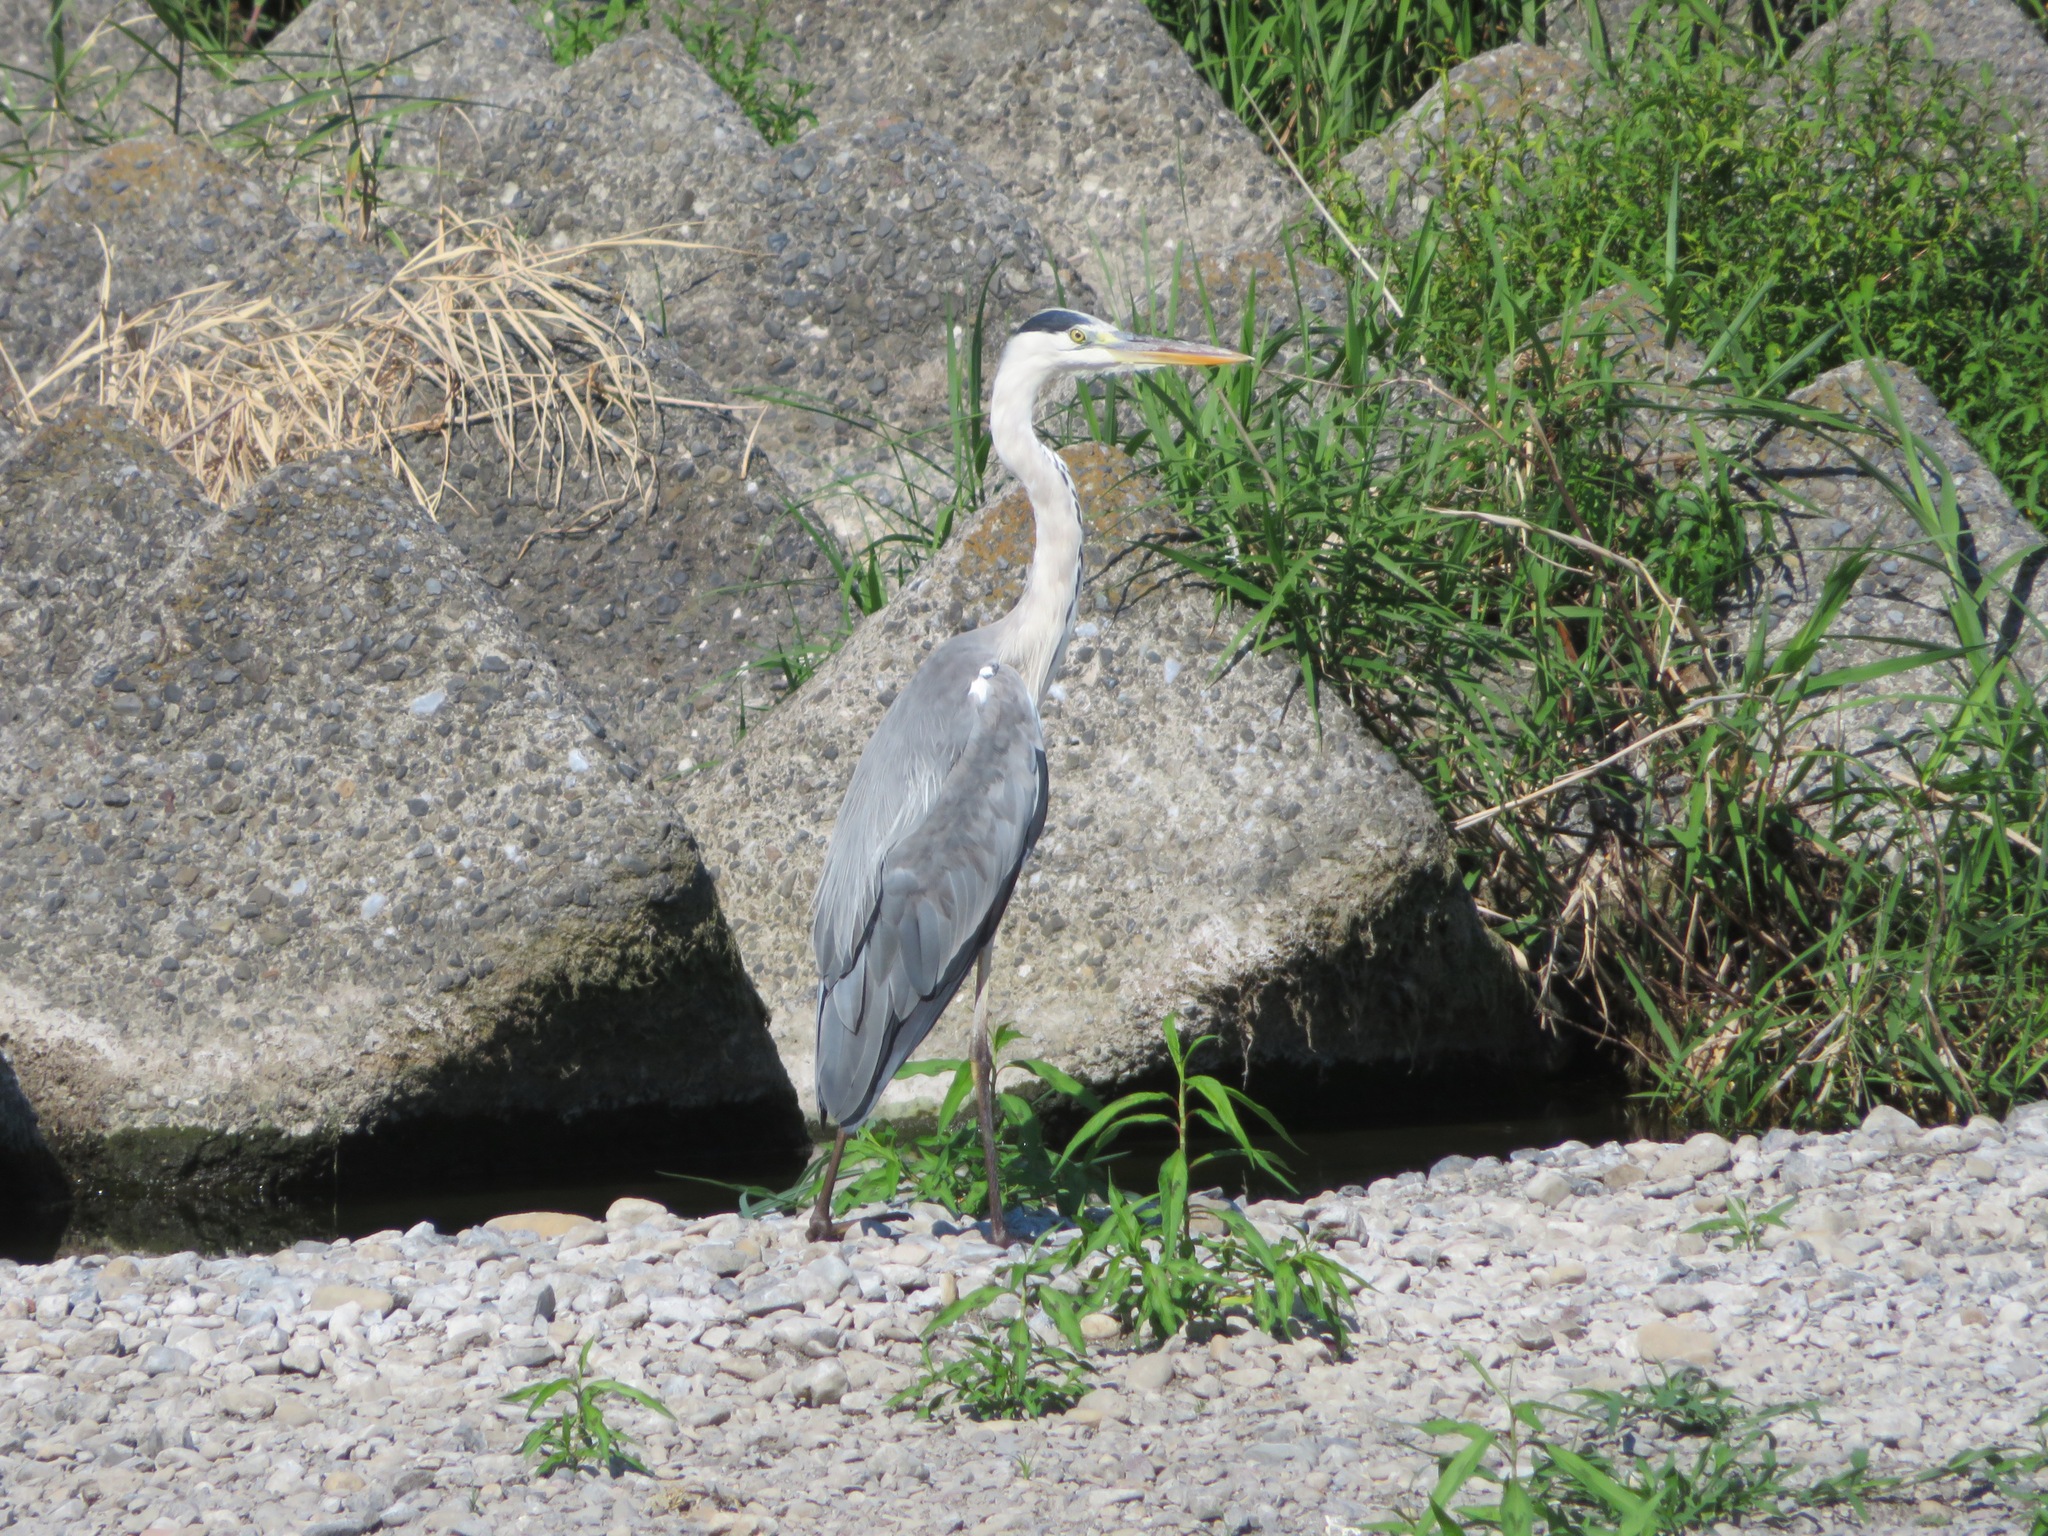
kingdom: Animalia
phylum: Chordata
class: Aves
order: Pelecaniformes
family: Ardeidae
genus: Ardea
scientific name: Ardea cinerea
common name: Grey heron
